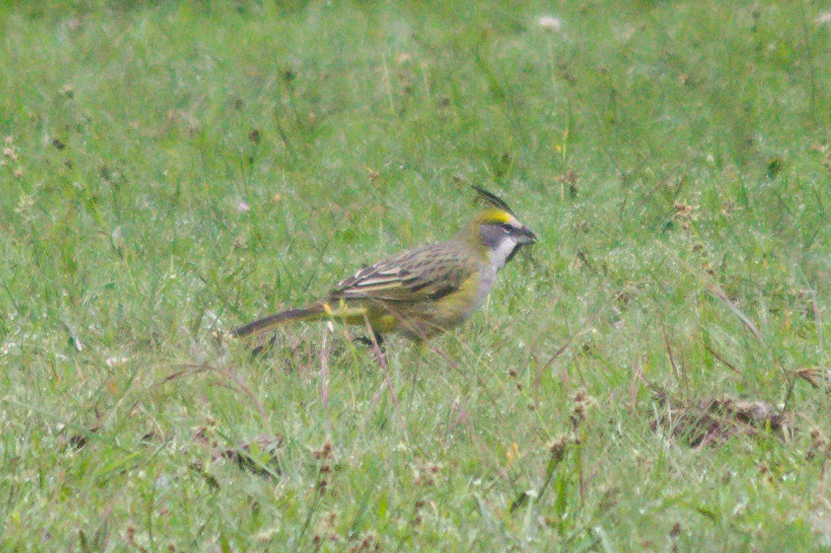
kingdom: Animalia
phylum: Chordata
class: Aves
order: Passeriformes
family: Thraupidae
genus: Gubernatrix
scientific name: Gubernatrix cristata
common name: Yellow cardinal
